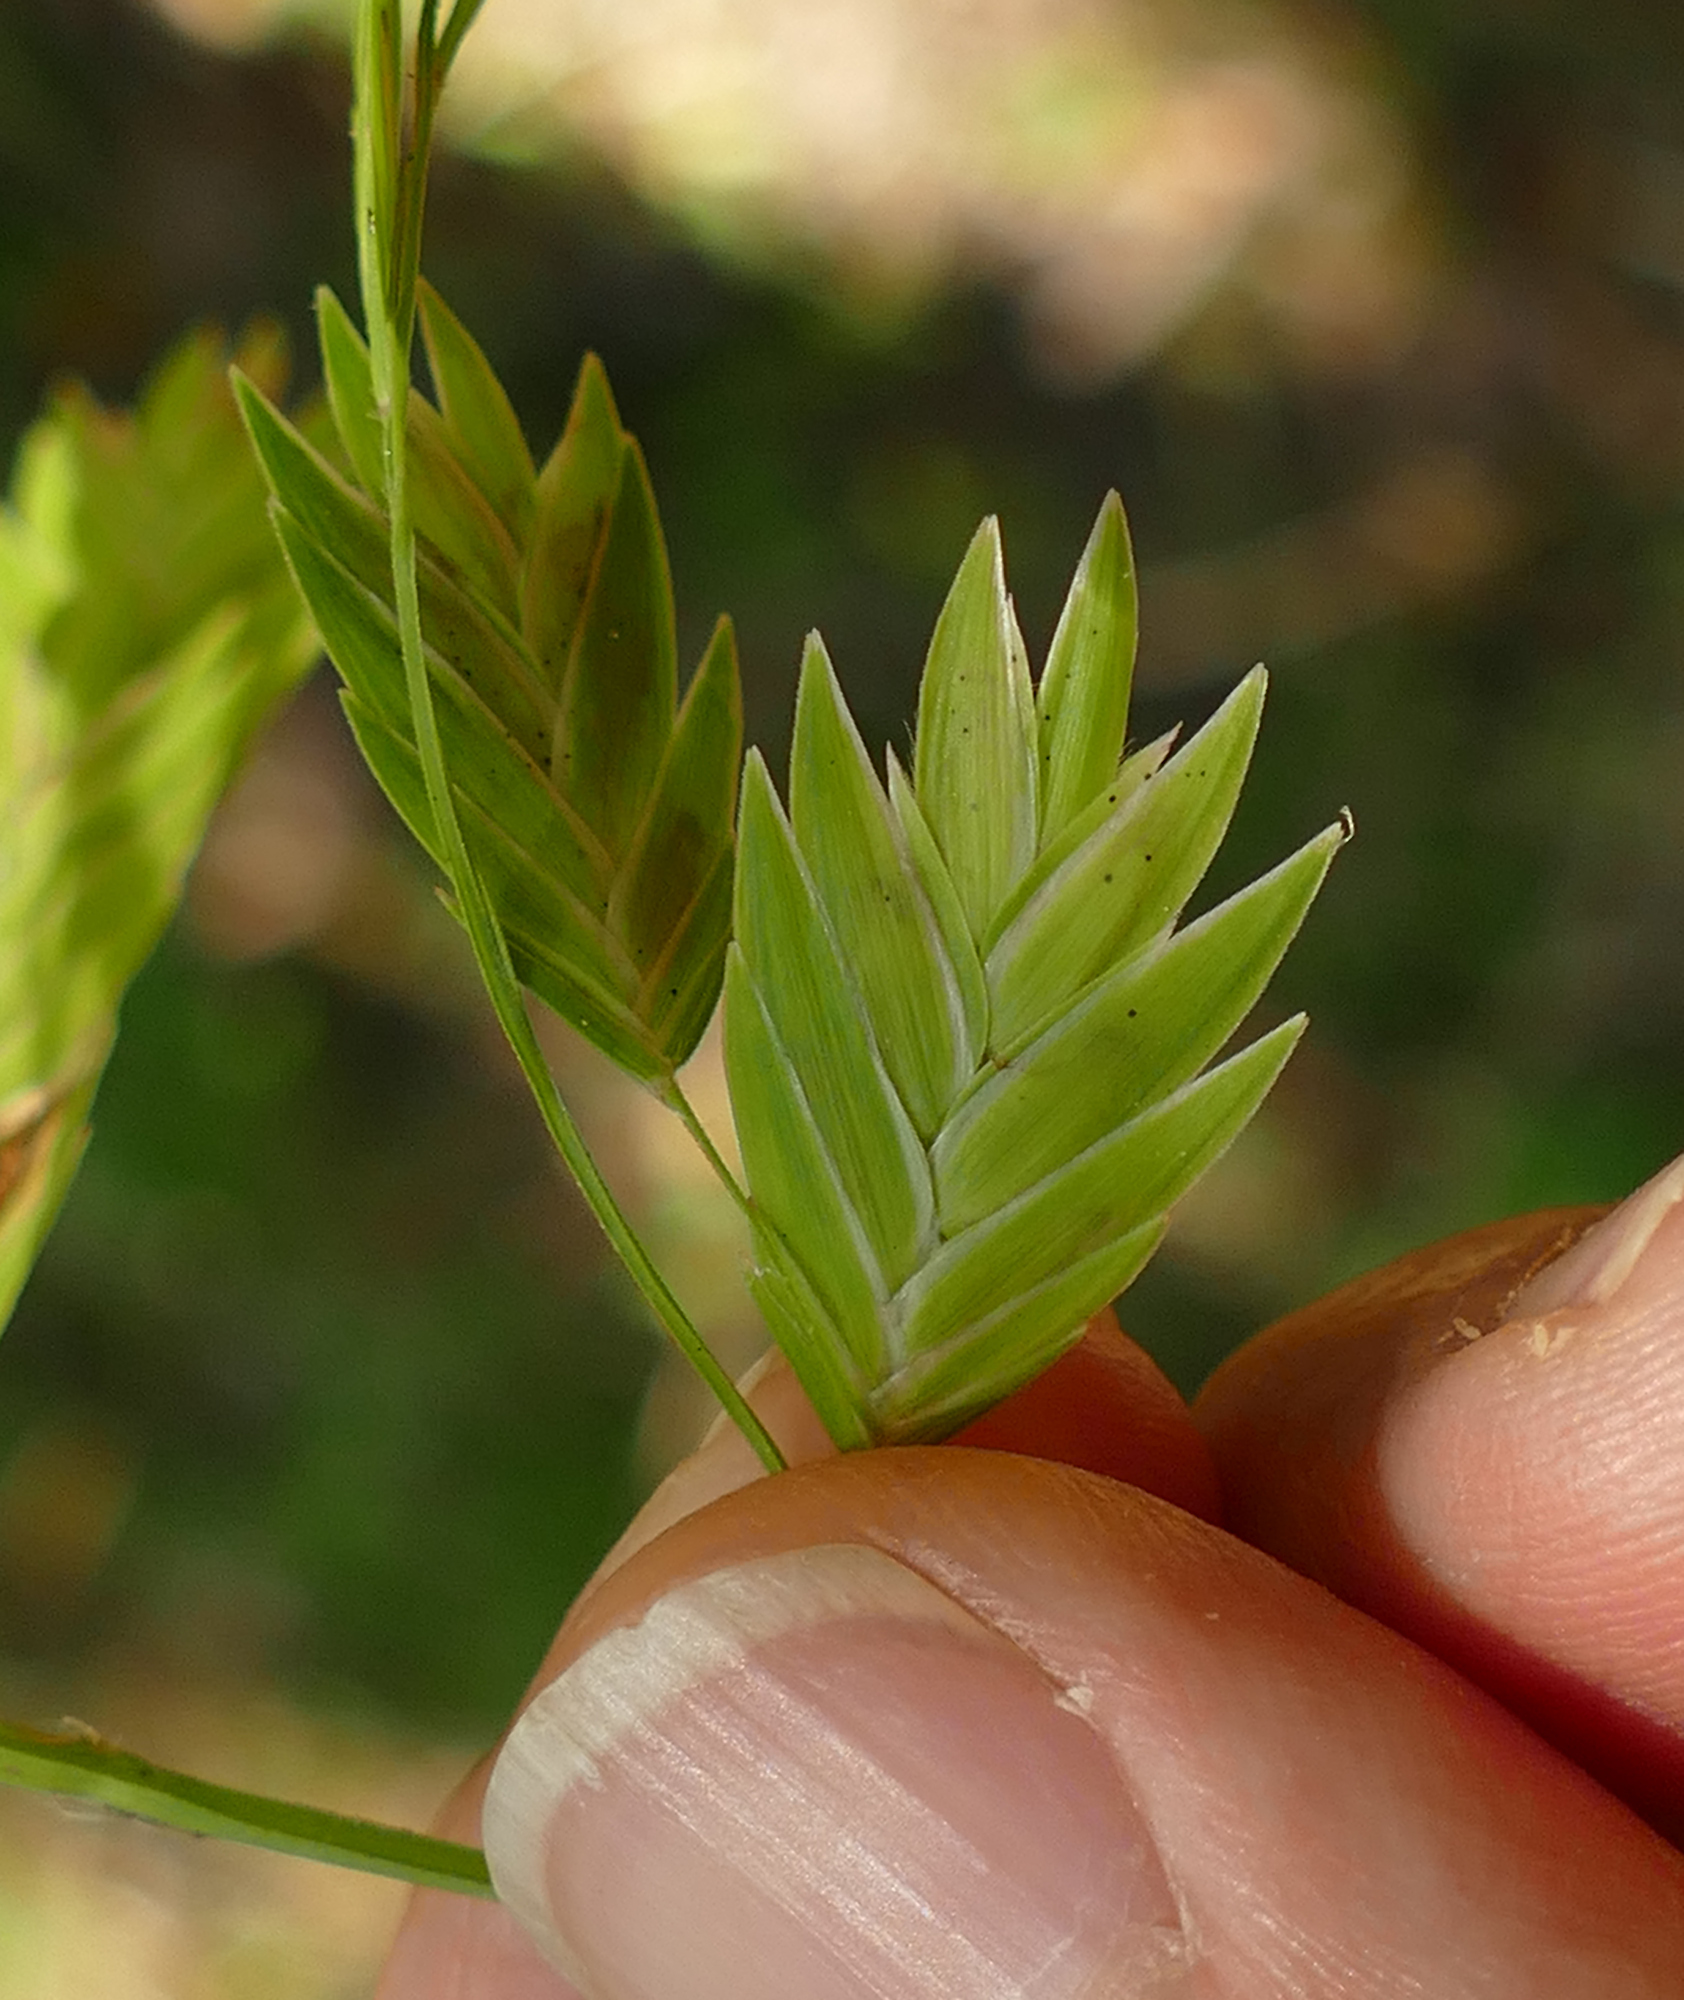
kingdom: Plantae
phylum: Tracheophyta
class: Liliopsida
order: Poales
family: Poaceae
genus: Chasmanthium
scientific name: Chasmanthium latifolium
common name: Broad-leaved chasmanthium
